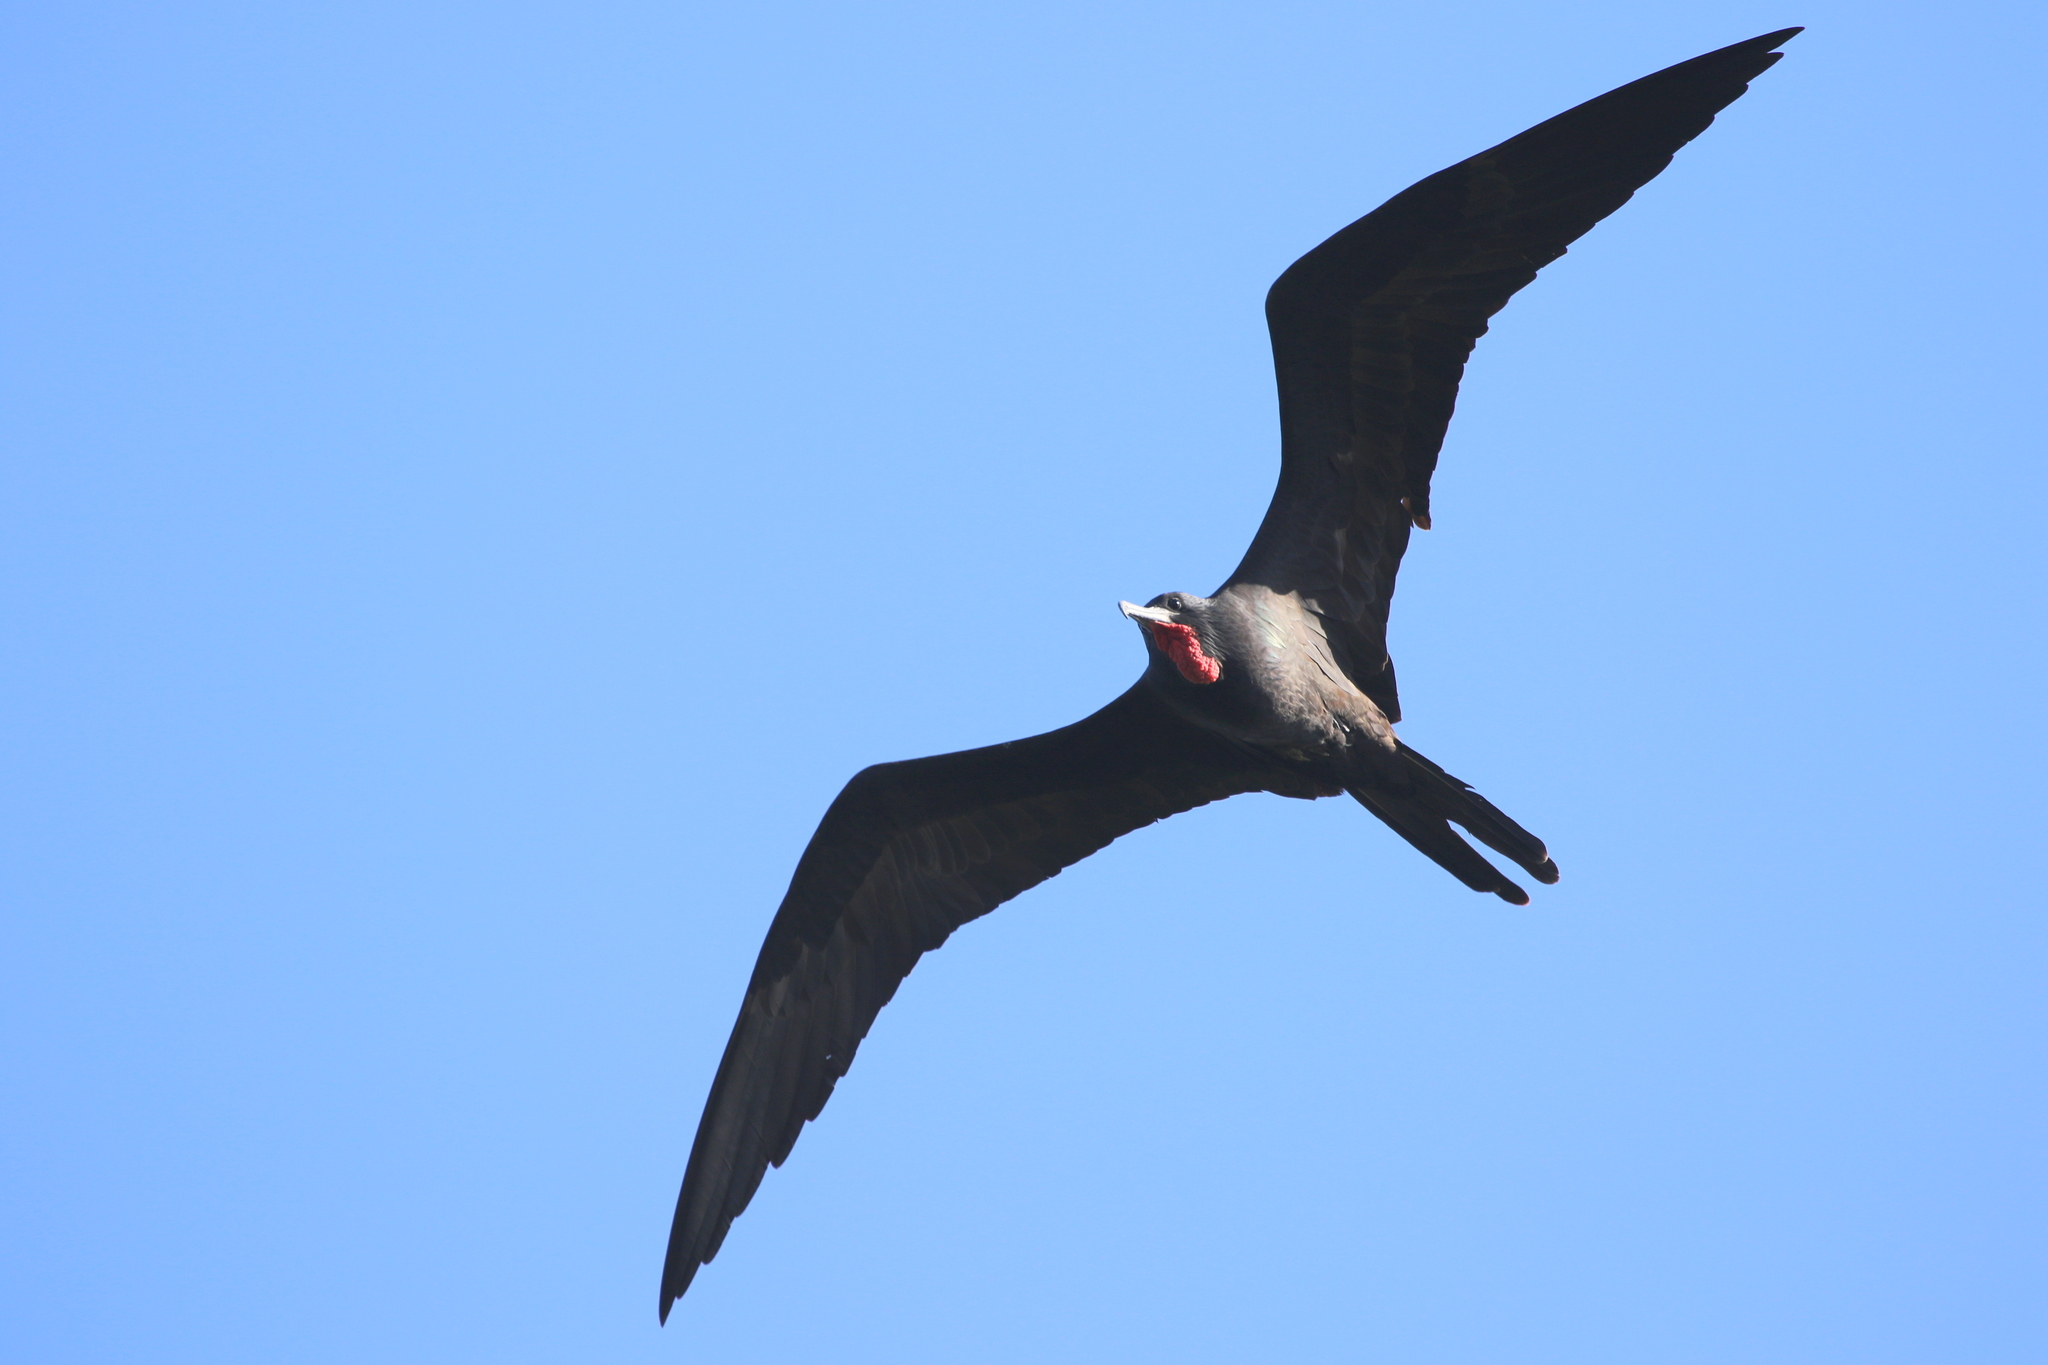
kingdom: Animalia
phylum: Chordata
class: Aves
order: Suliformes
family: Fregatidae
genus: Fregata
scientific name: Fregata magnificens
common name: Magnificent frigatebird
